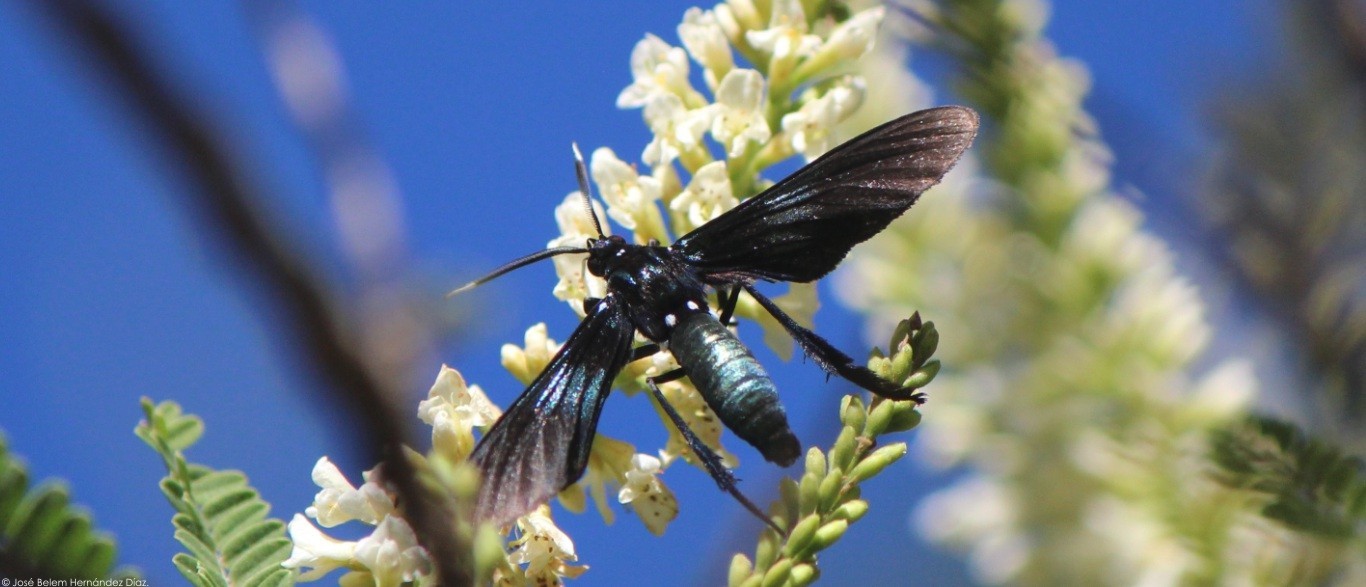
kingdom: Animalia
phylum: Arthropoda
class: Insecta
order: Lepidoptera
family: Erebidae
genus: Macrocneme
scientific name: Macrocneme chrysitis
